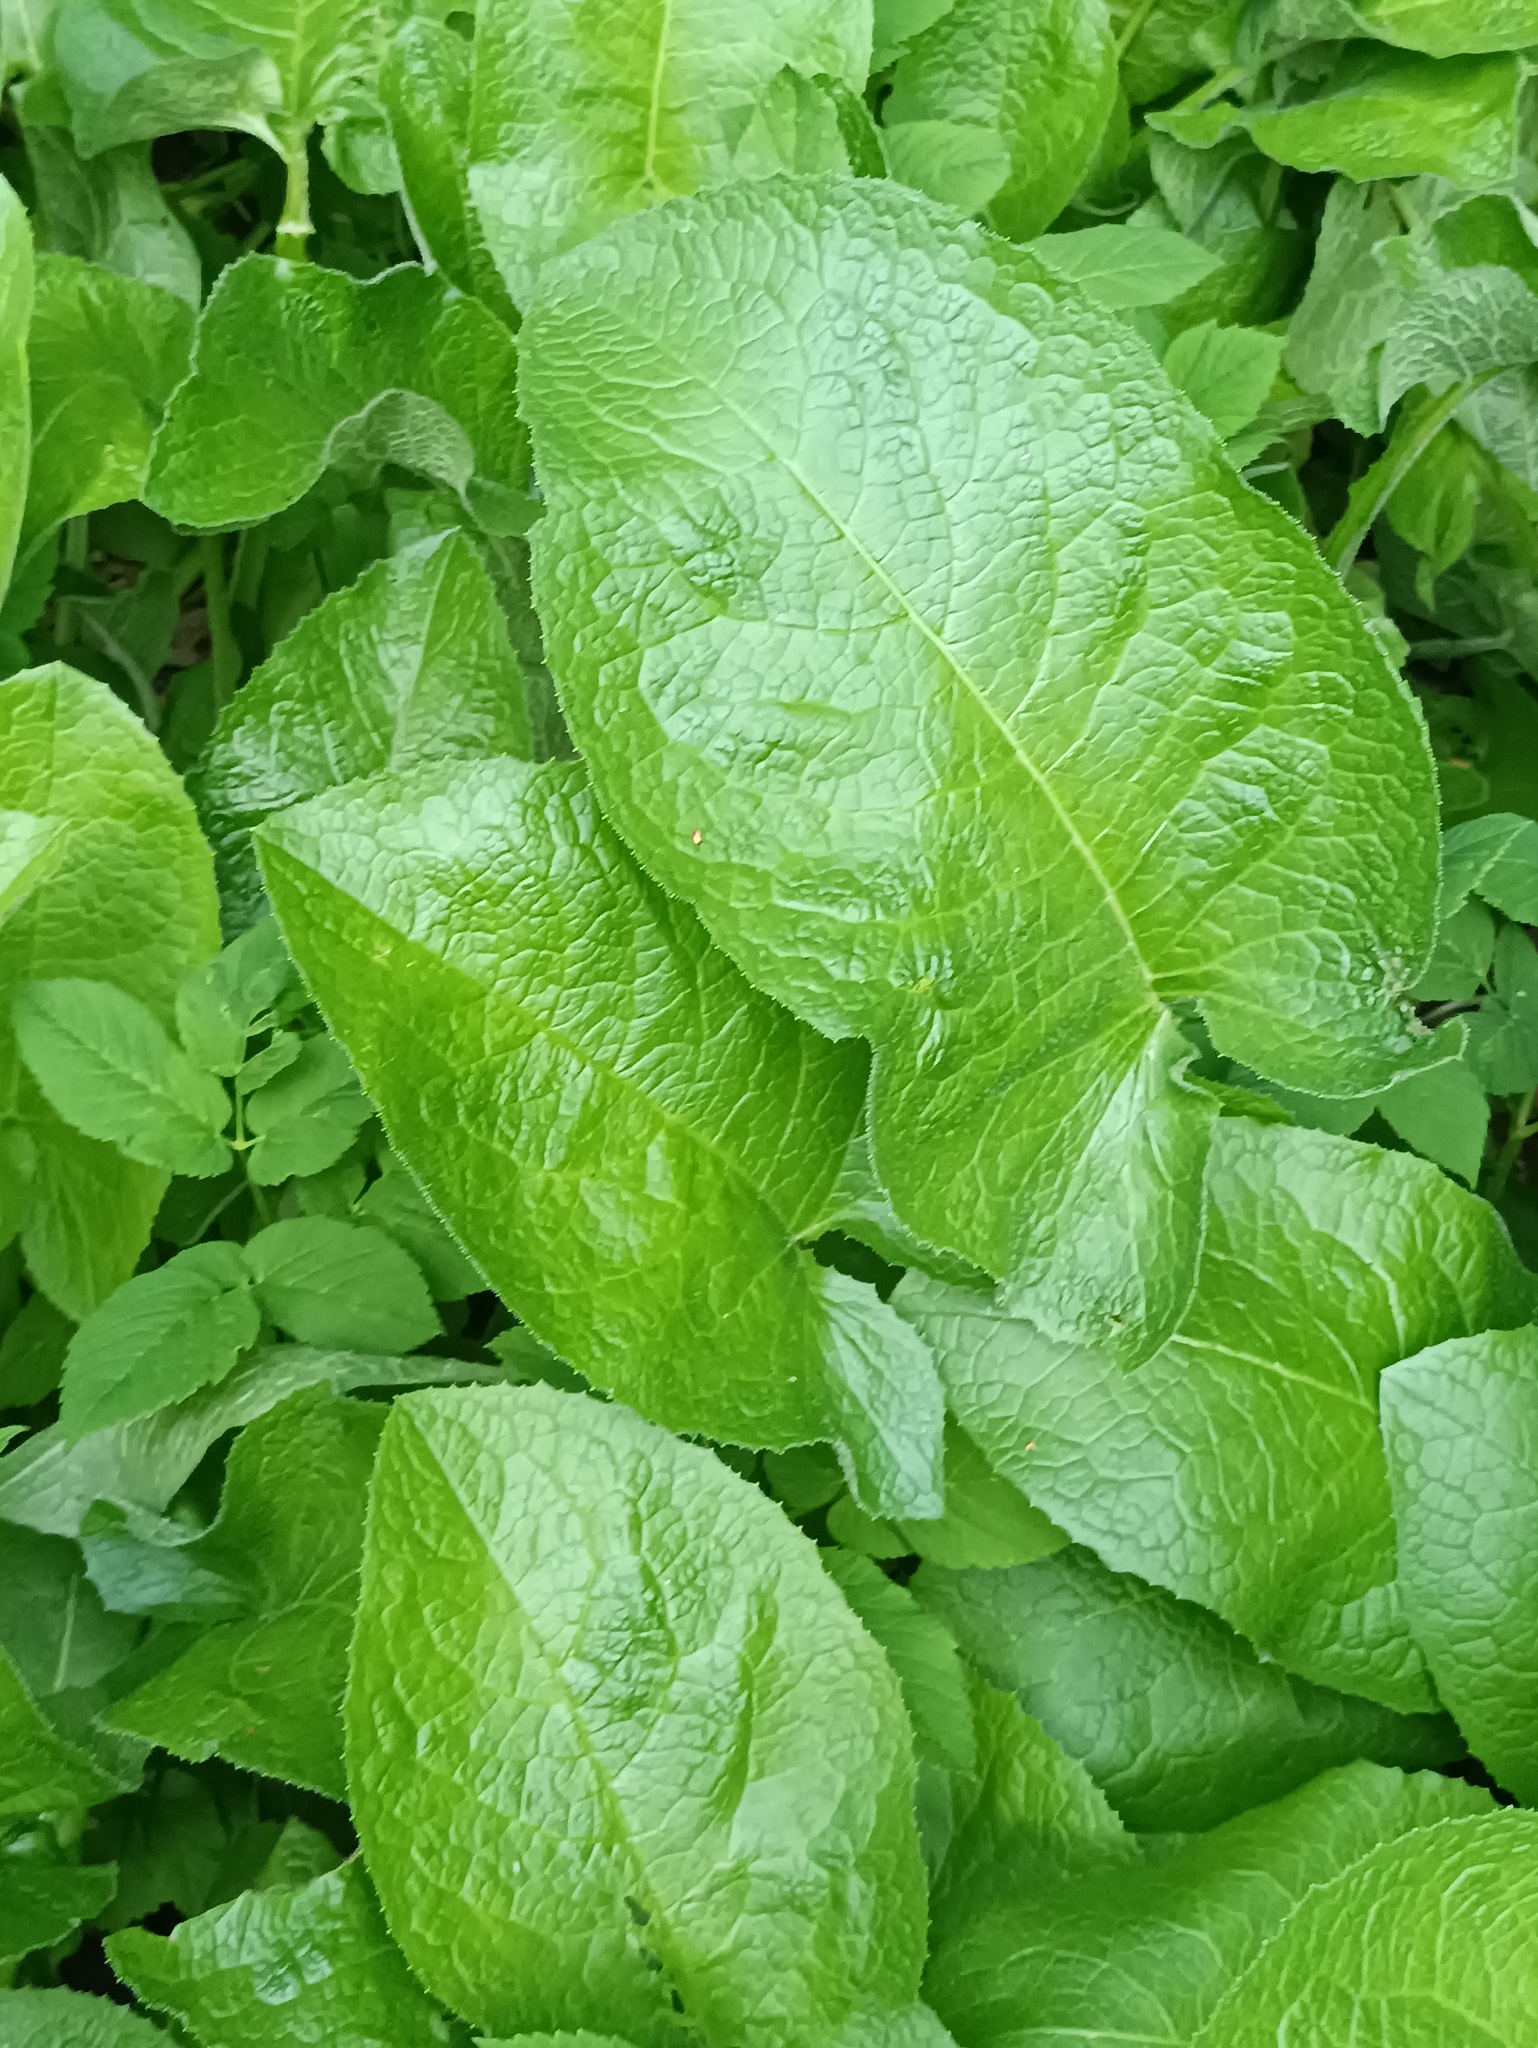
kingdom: Plantae
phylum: Tracheophyta
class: Magnoliopsida
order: Asterales
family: Asteraceae
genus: Lactuca
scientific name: Lactuca macrophylla
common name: Common blue-sow-thistle
